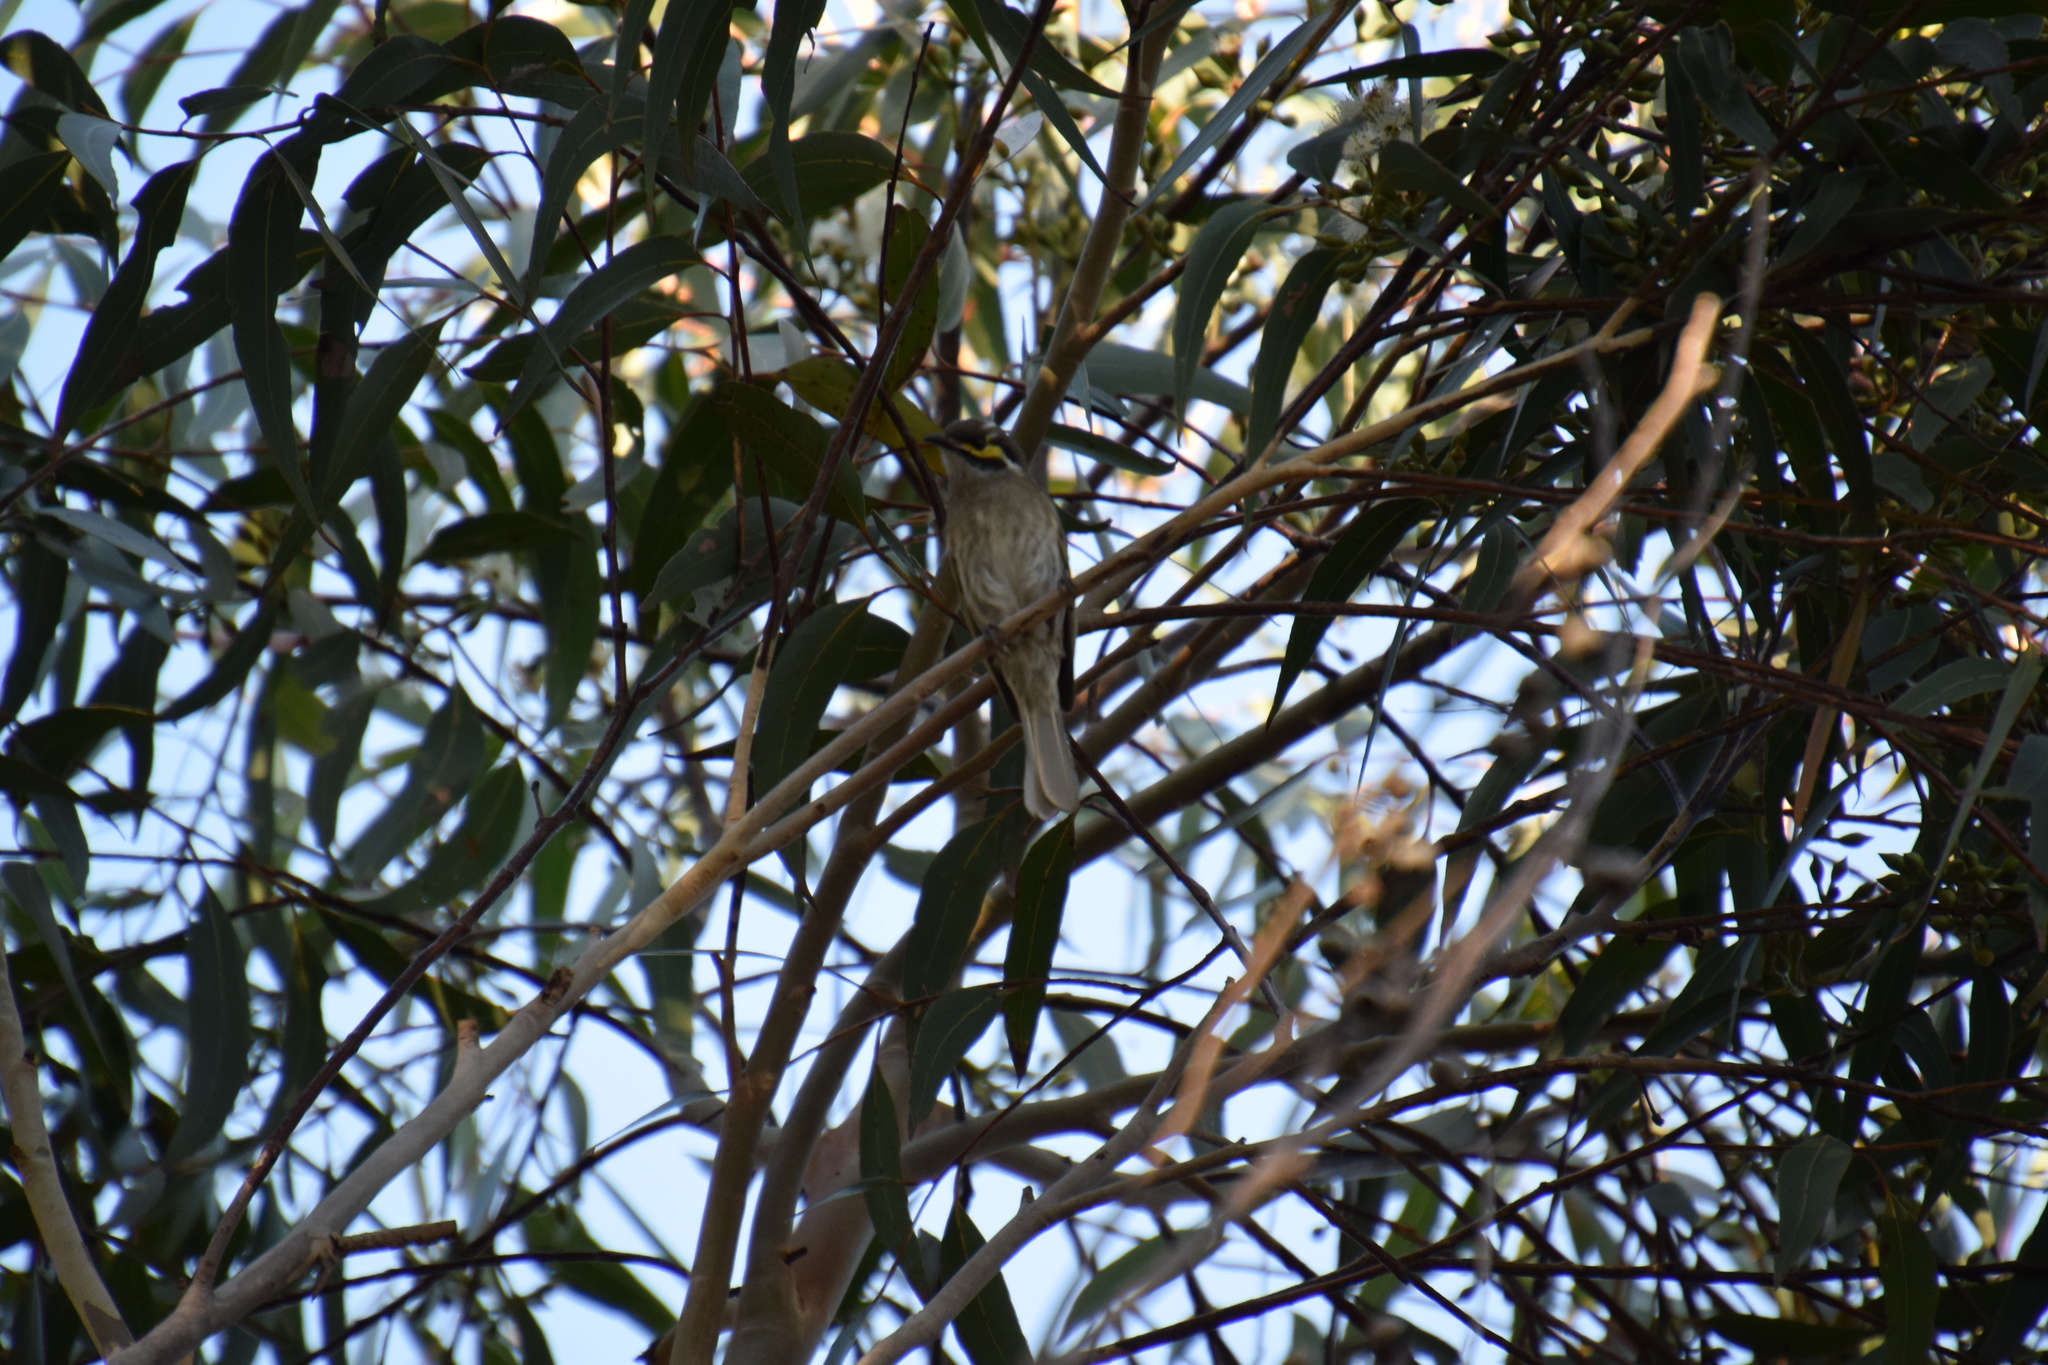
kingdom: Animalia
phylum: Chordata
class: Aves
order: Passeriformes
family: Meliphagidae
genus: Caligavis
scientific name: Caligavis chrysops
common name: Yellow-faced honeyeater
